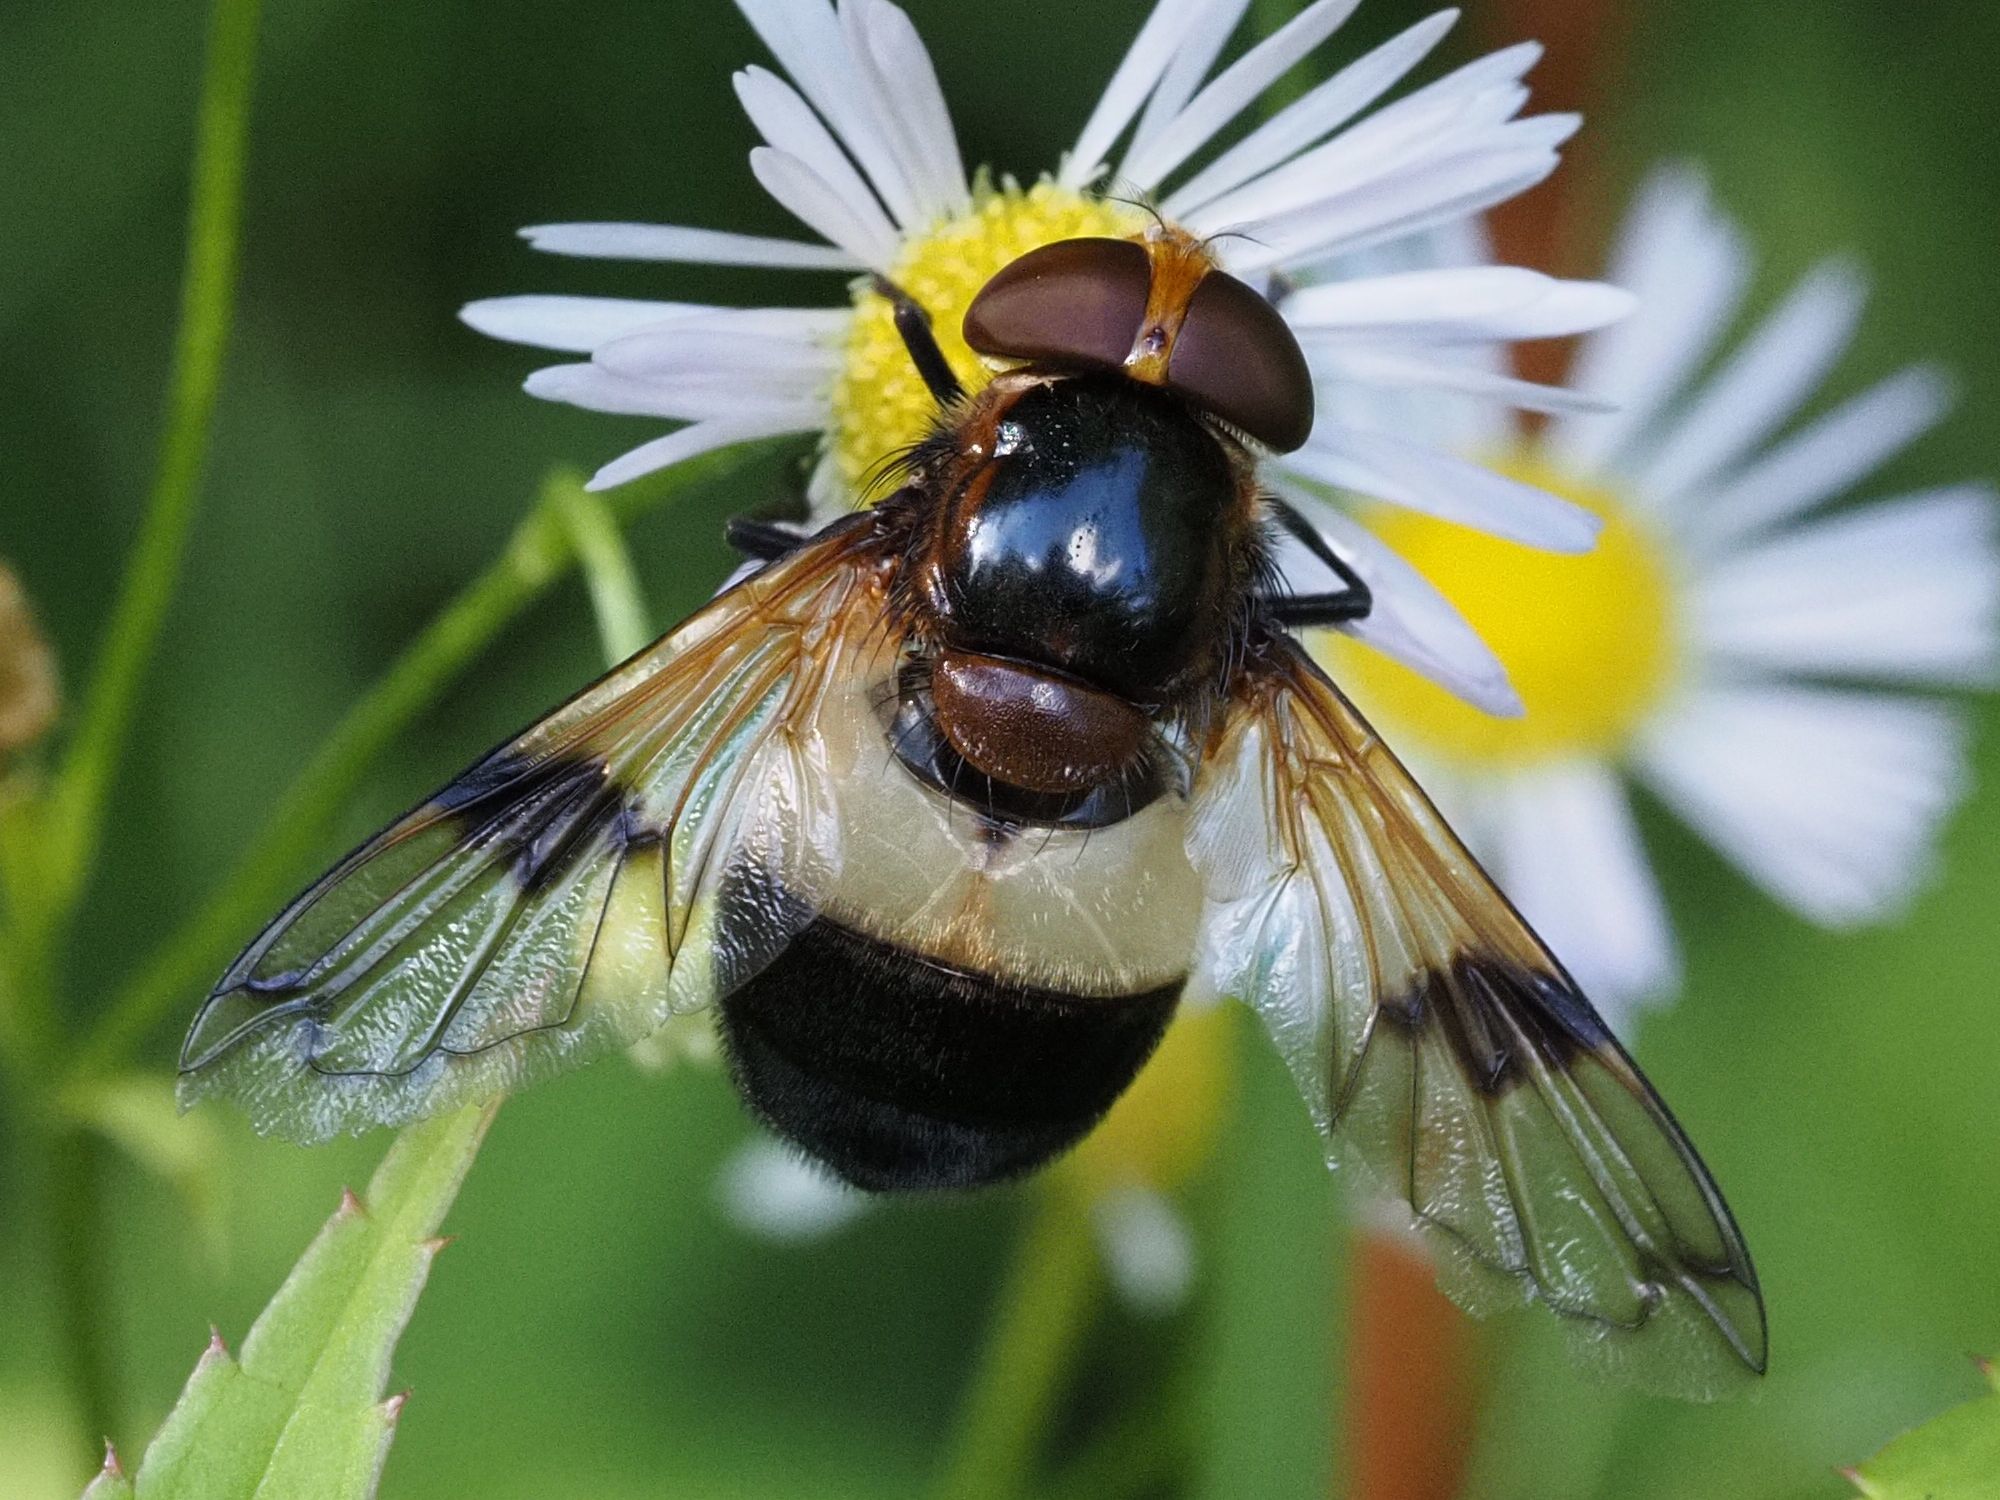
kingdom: Animalia
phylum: Arthropoda
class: Insecta
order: Diptera
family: Syrphidae
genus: Volucella
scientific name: Volucella pellucens
